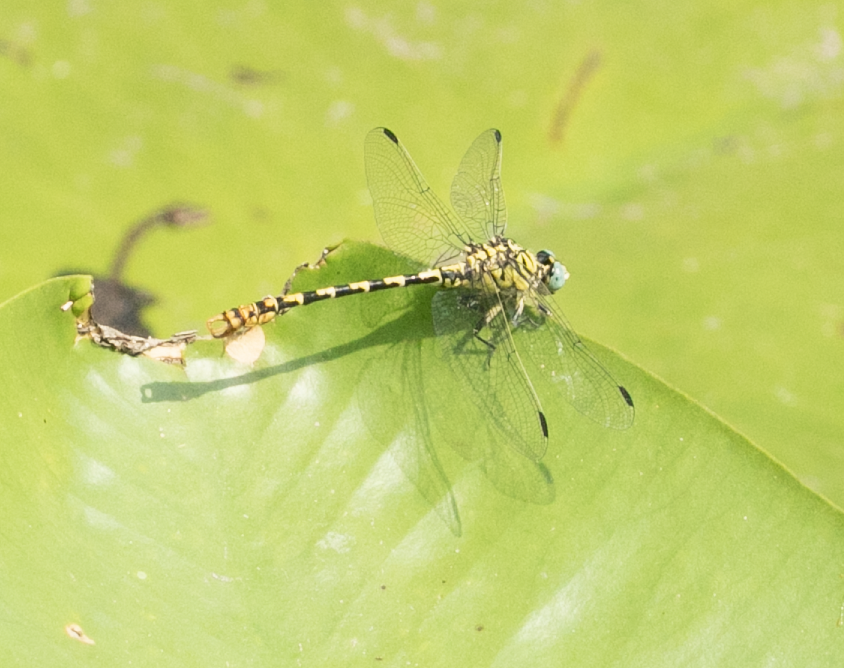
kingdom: Animalia
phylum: Arthropoda
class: Insecta
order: Odonata
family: Gomphidae
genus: Onychogomphus
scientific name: Onychogomphus forcipatus
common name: Small pincertail
